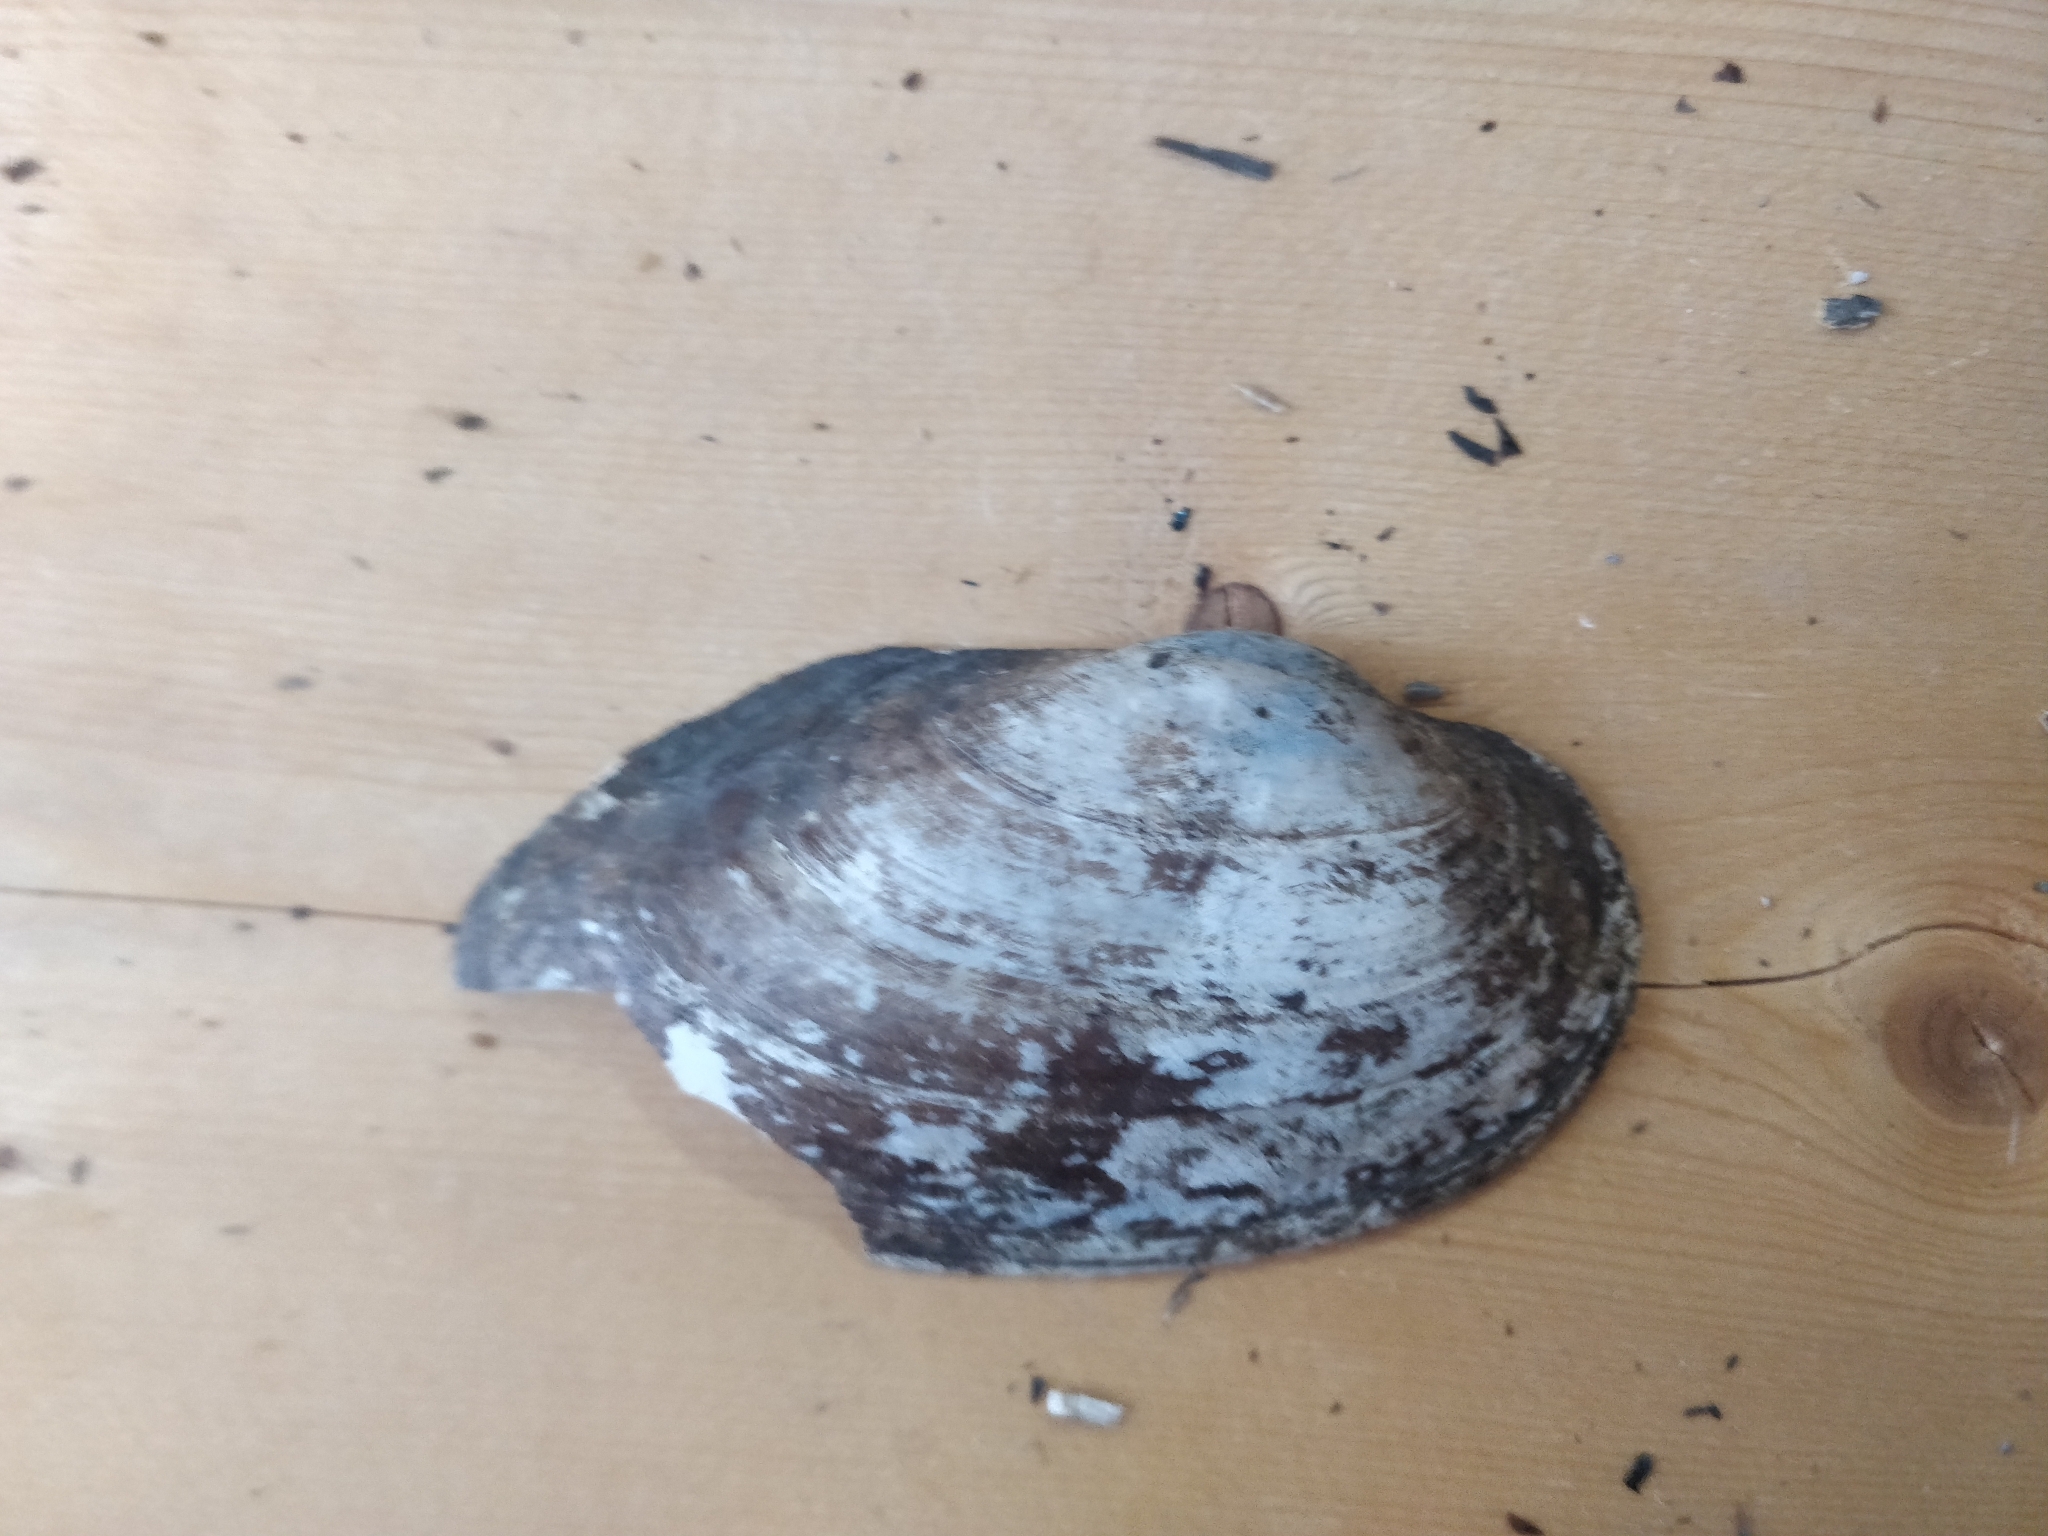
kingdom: Animalia
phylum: Mollusca
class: Bivalvia
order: Unionida
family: Unionidae
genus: Pyganodon
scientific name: Pyganodon grandis
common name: Giant floater
